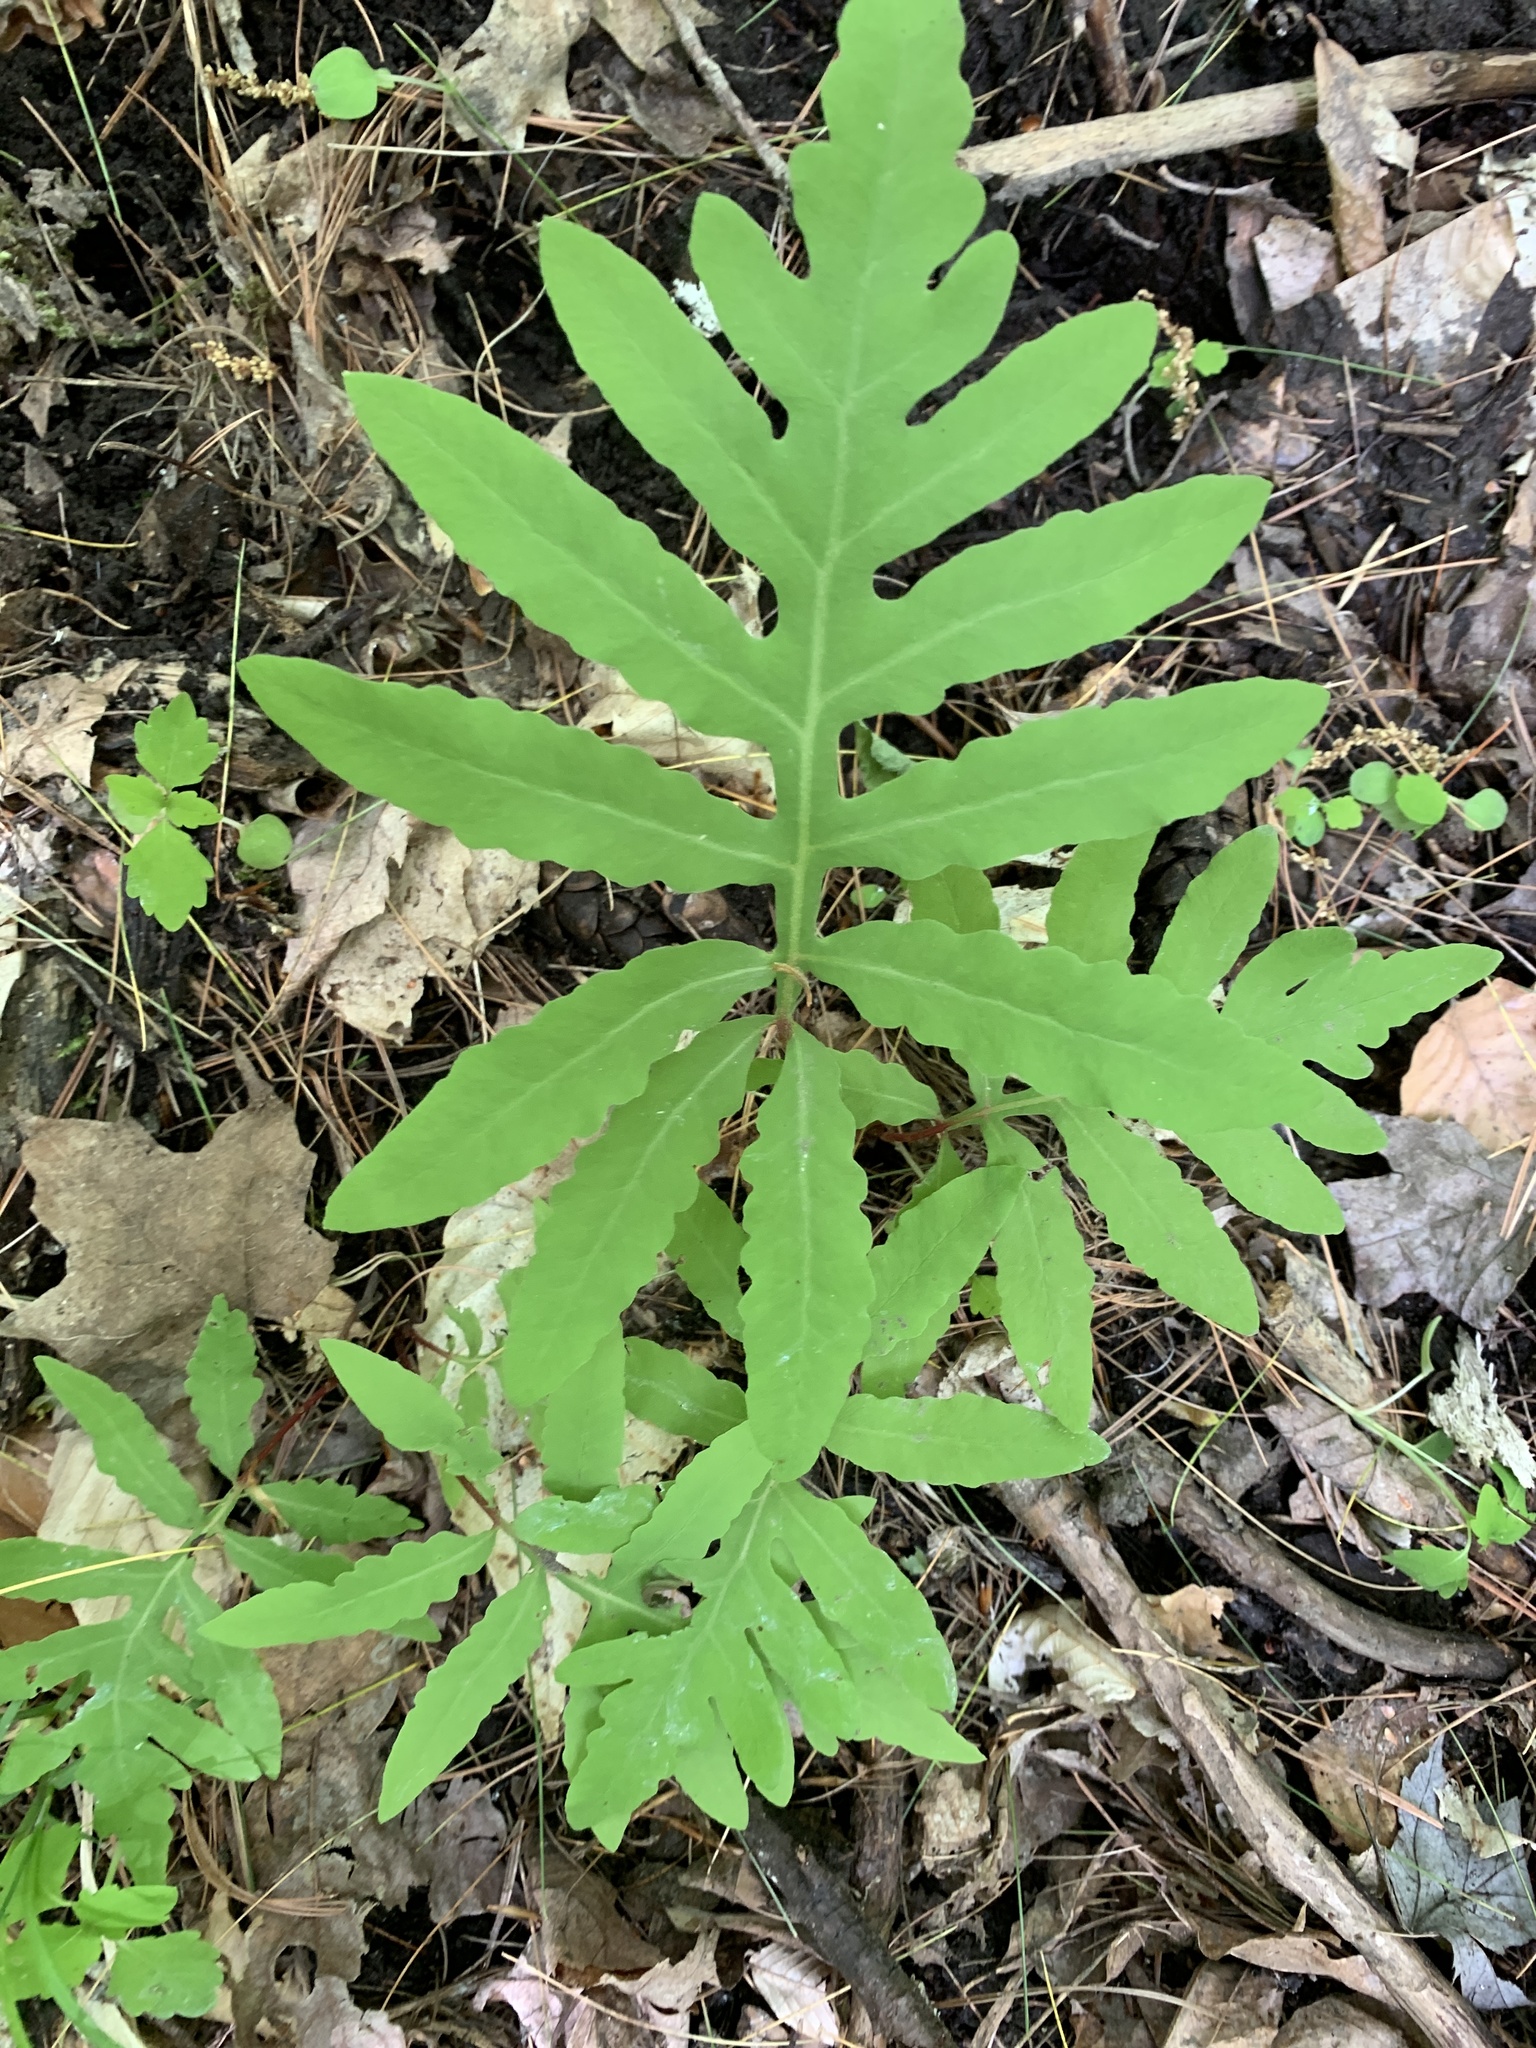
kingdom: Plantae
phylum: Tracheophyta
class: Polypodiopsida
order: Polypodiales
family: Onocleaceae
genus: Onoclea
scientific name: Onoclea sensibilis
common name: Sensitive fern
